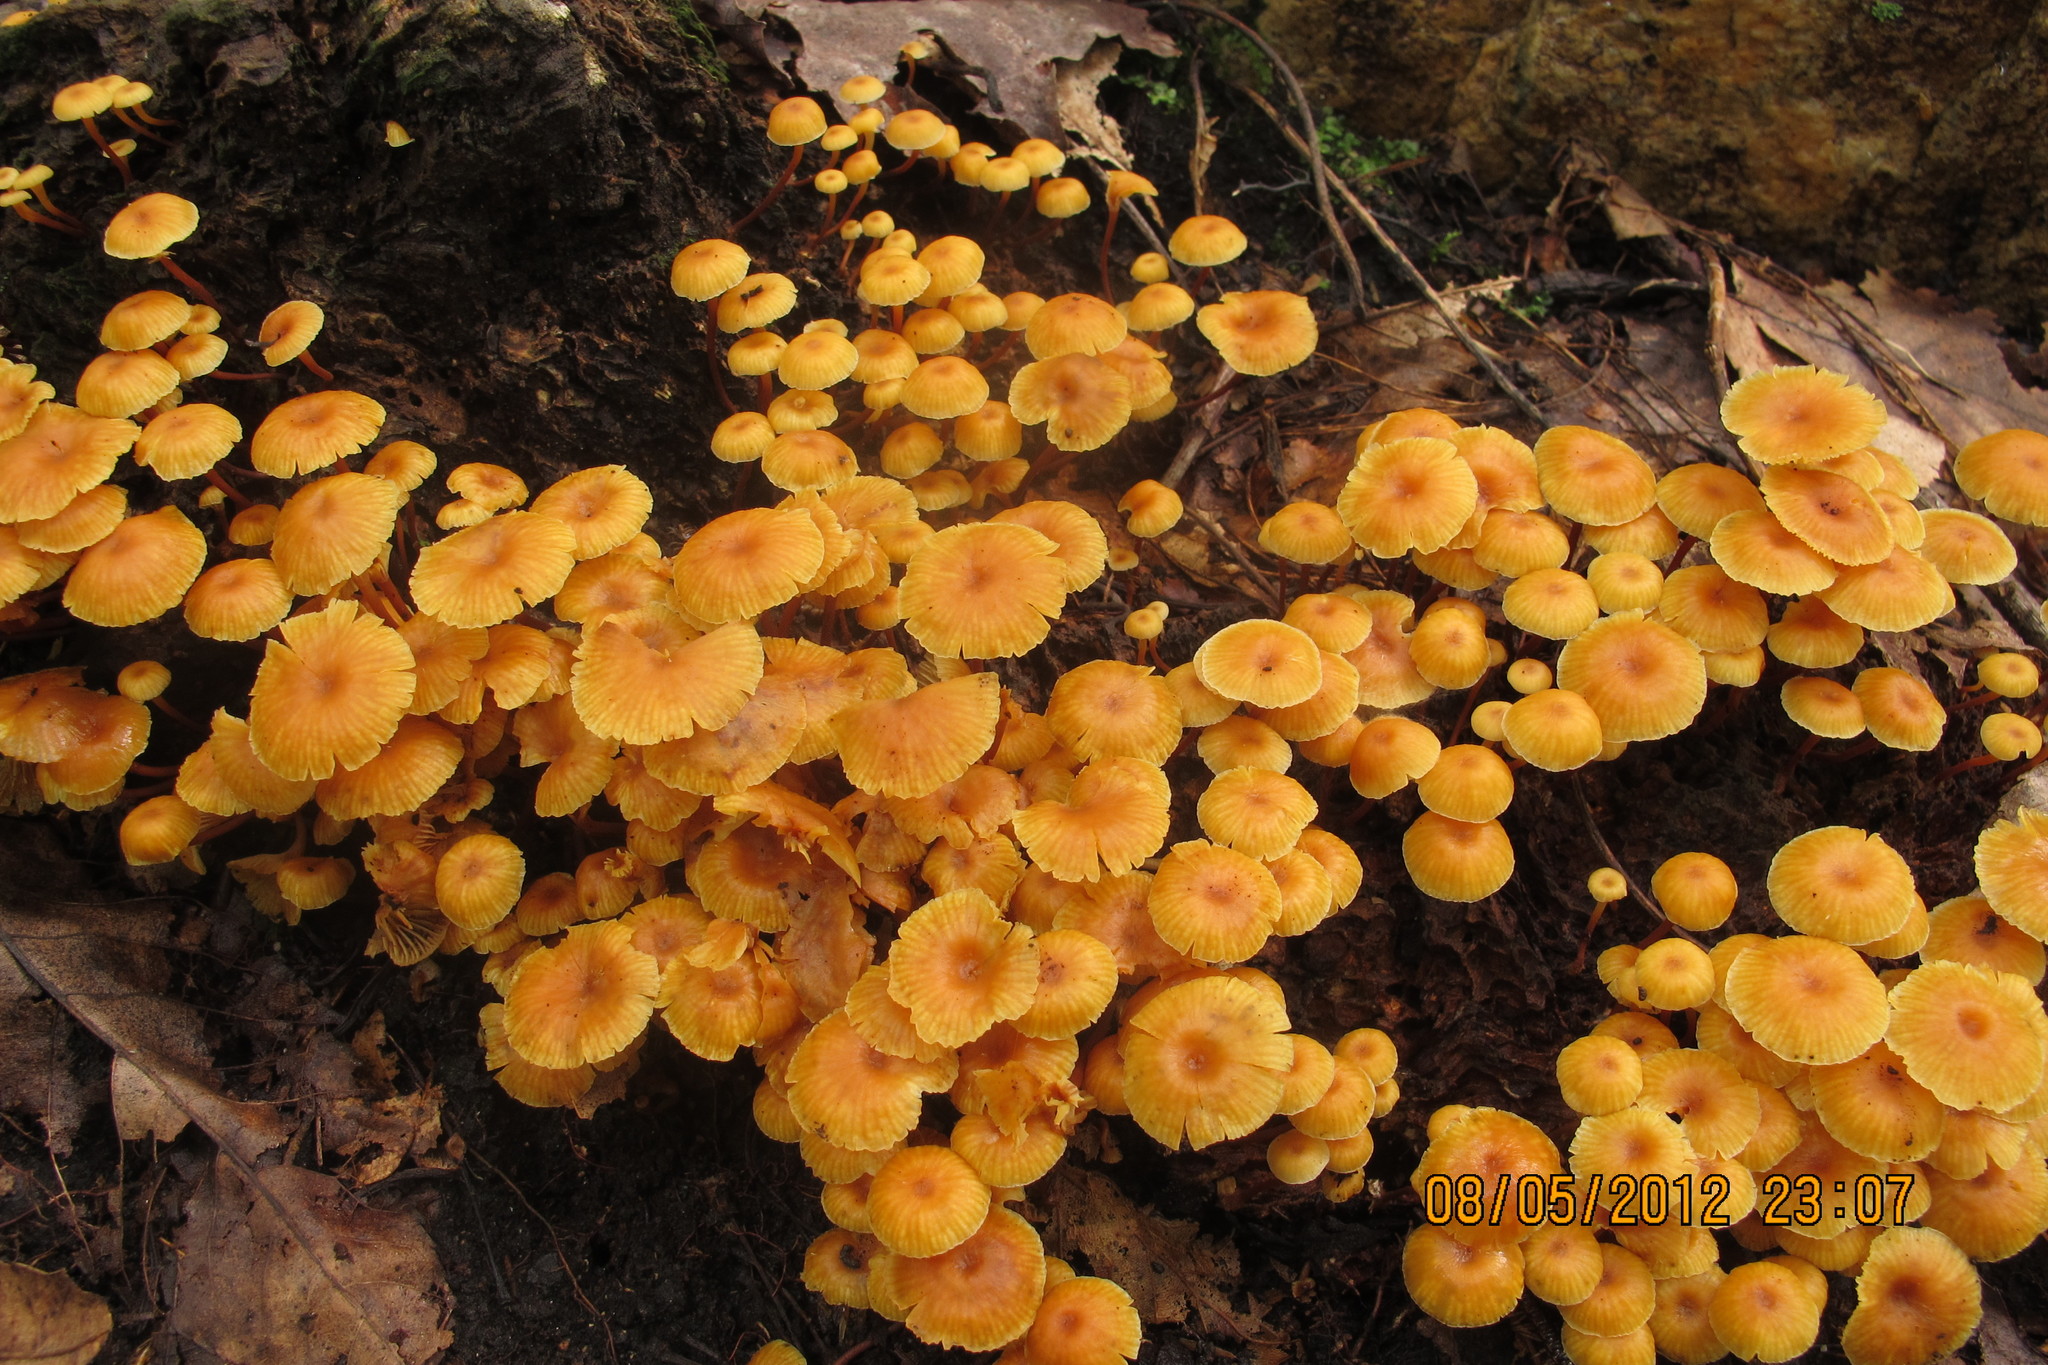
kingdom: Fungi
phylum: Basidiomycota
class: Agaricomycetes
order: Agaricales
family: Mycenaceae
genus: Xeromphalina
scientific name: Xeromphalina campanella
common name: Pinewood gingertail
